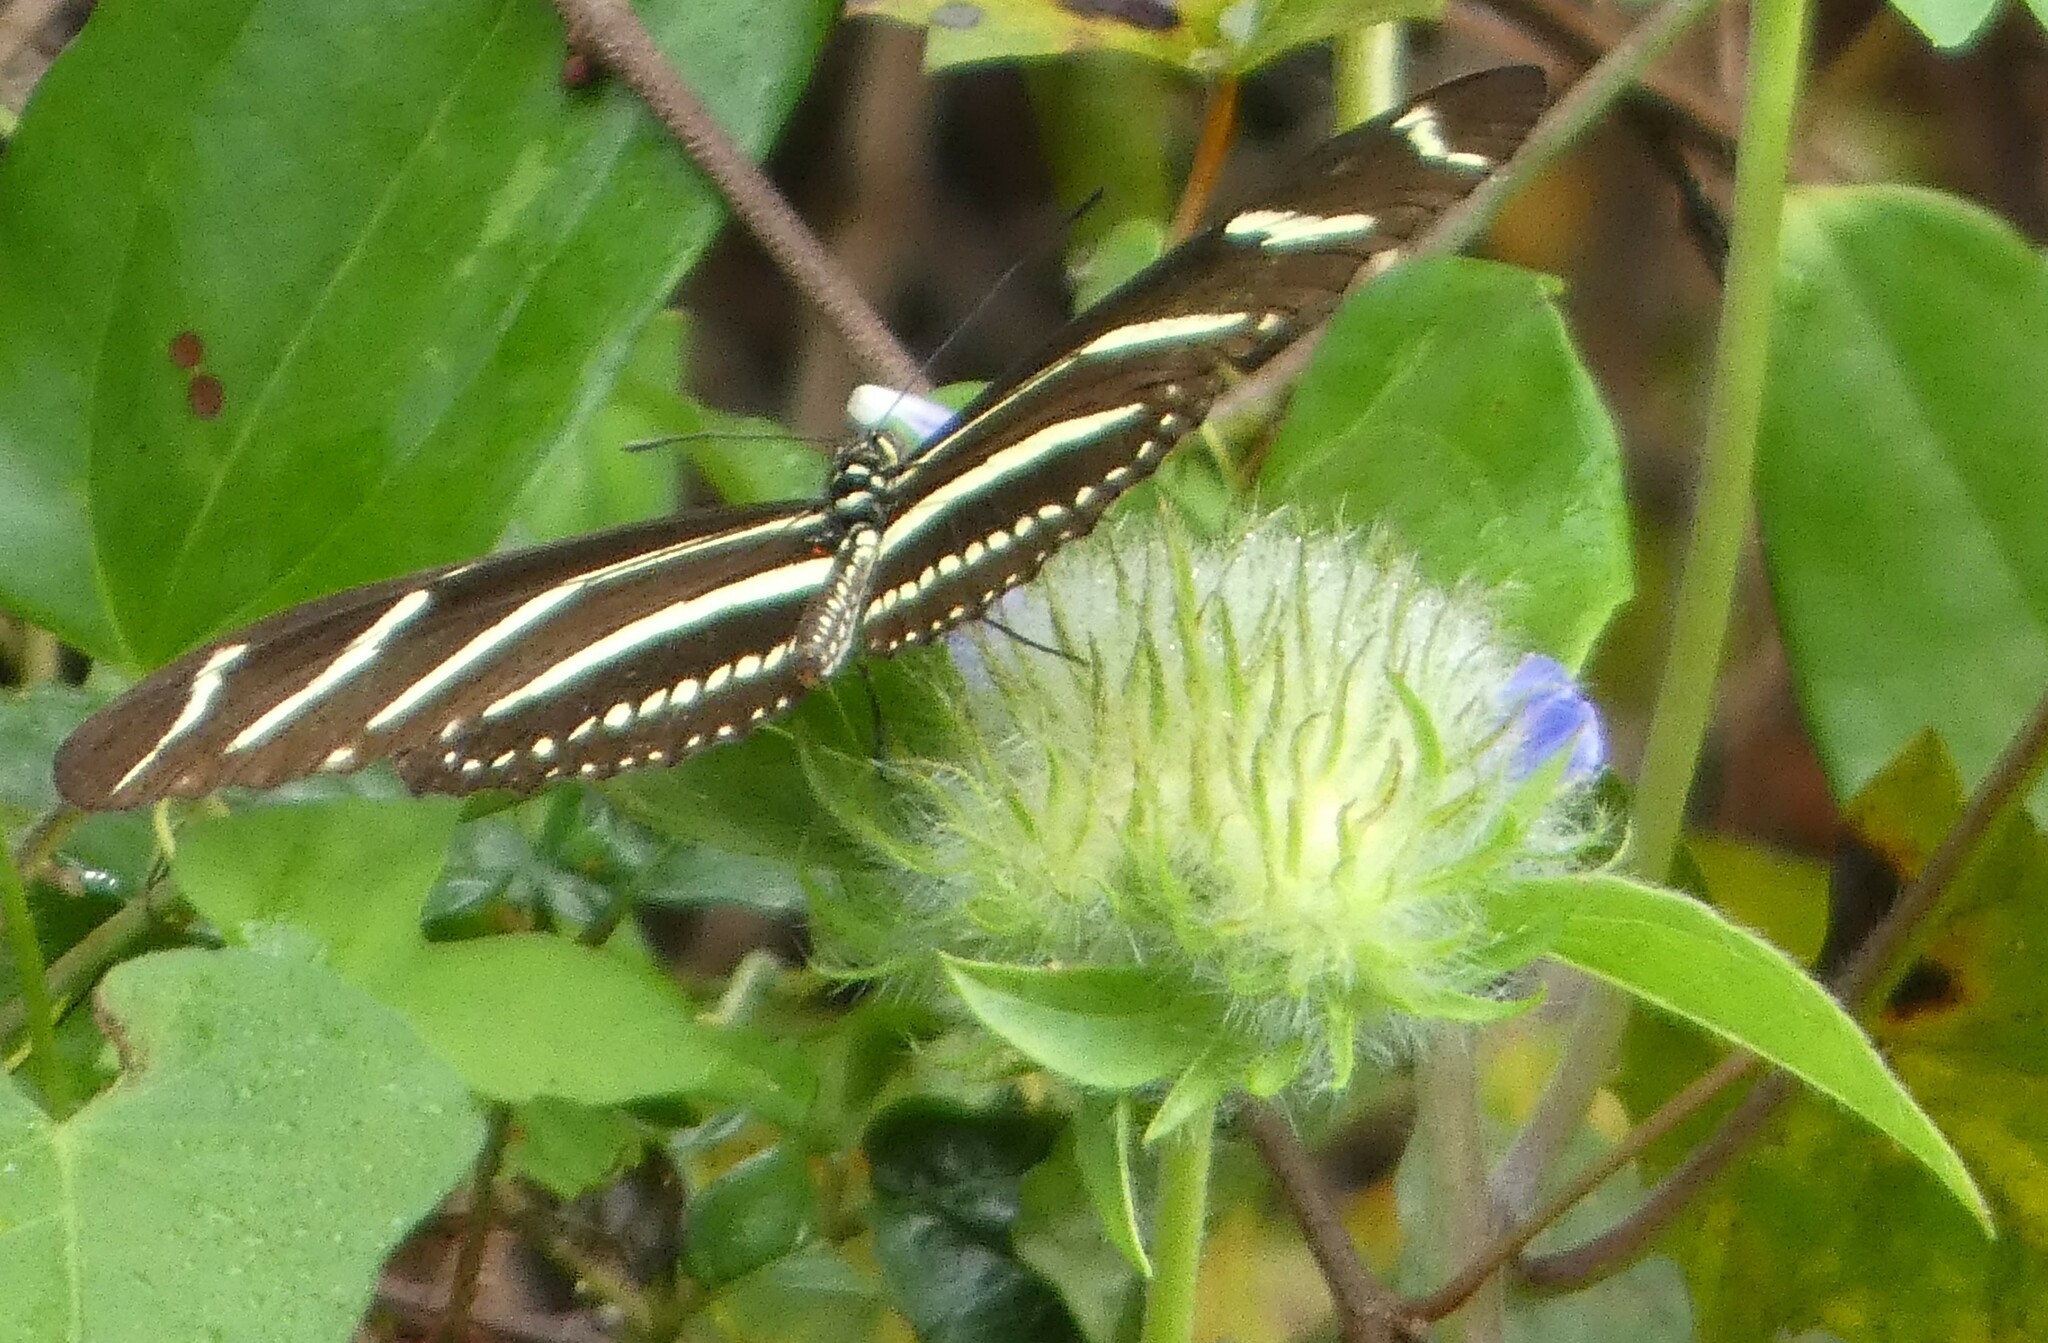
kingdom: Animalia
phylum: Arthropoda
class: Insecta
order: Lepidoptera
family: Nymphalidae
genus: Heliconius
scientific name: Heliconius charithonia
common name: Zebra long wing
